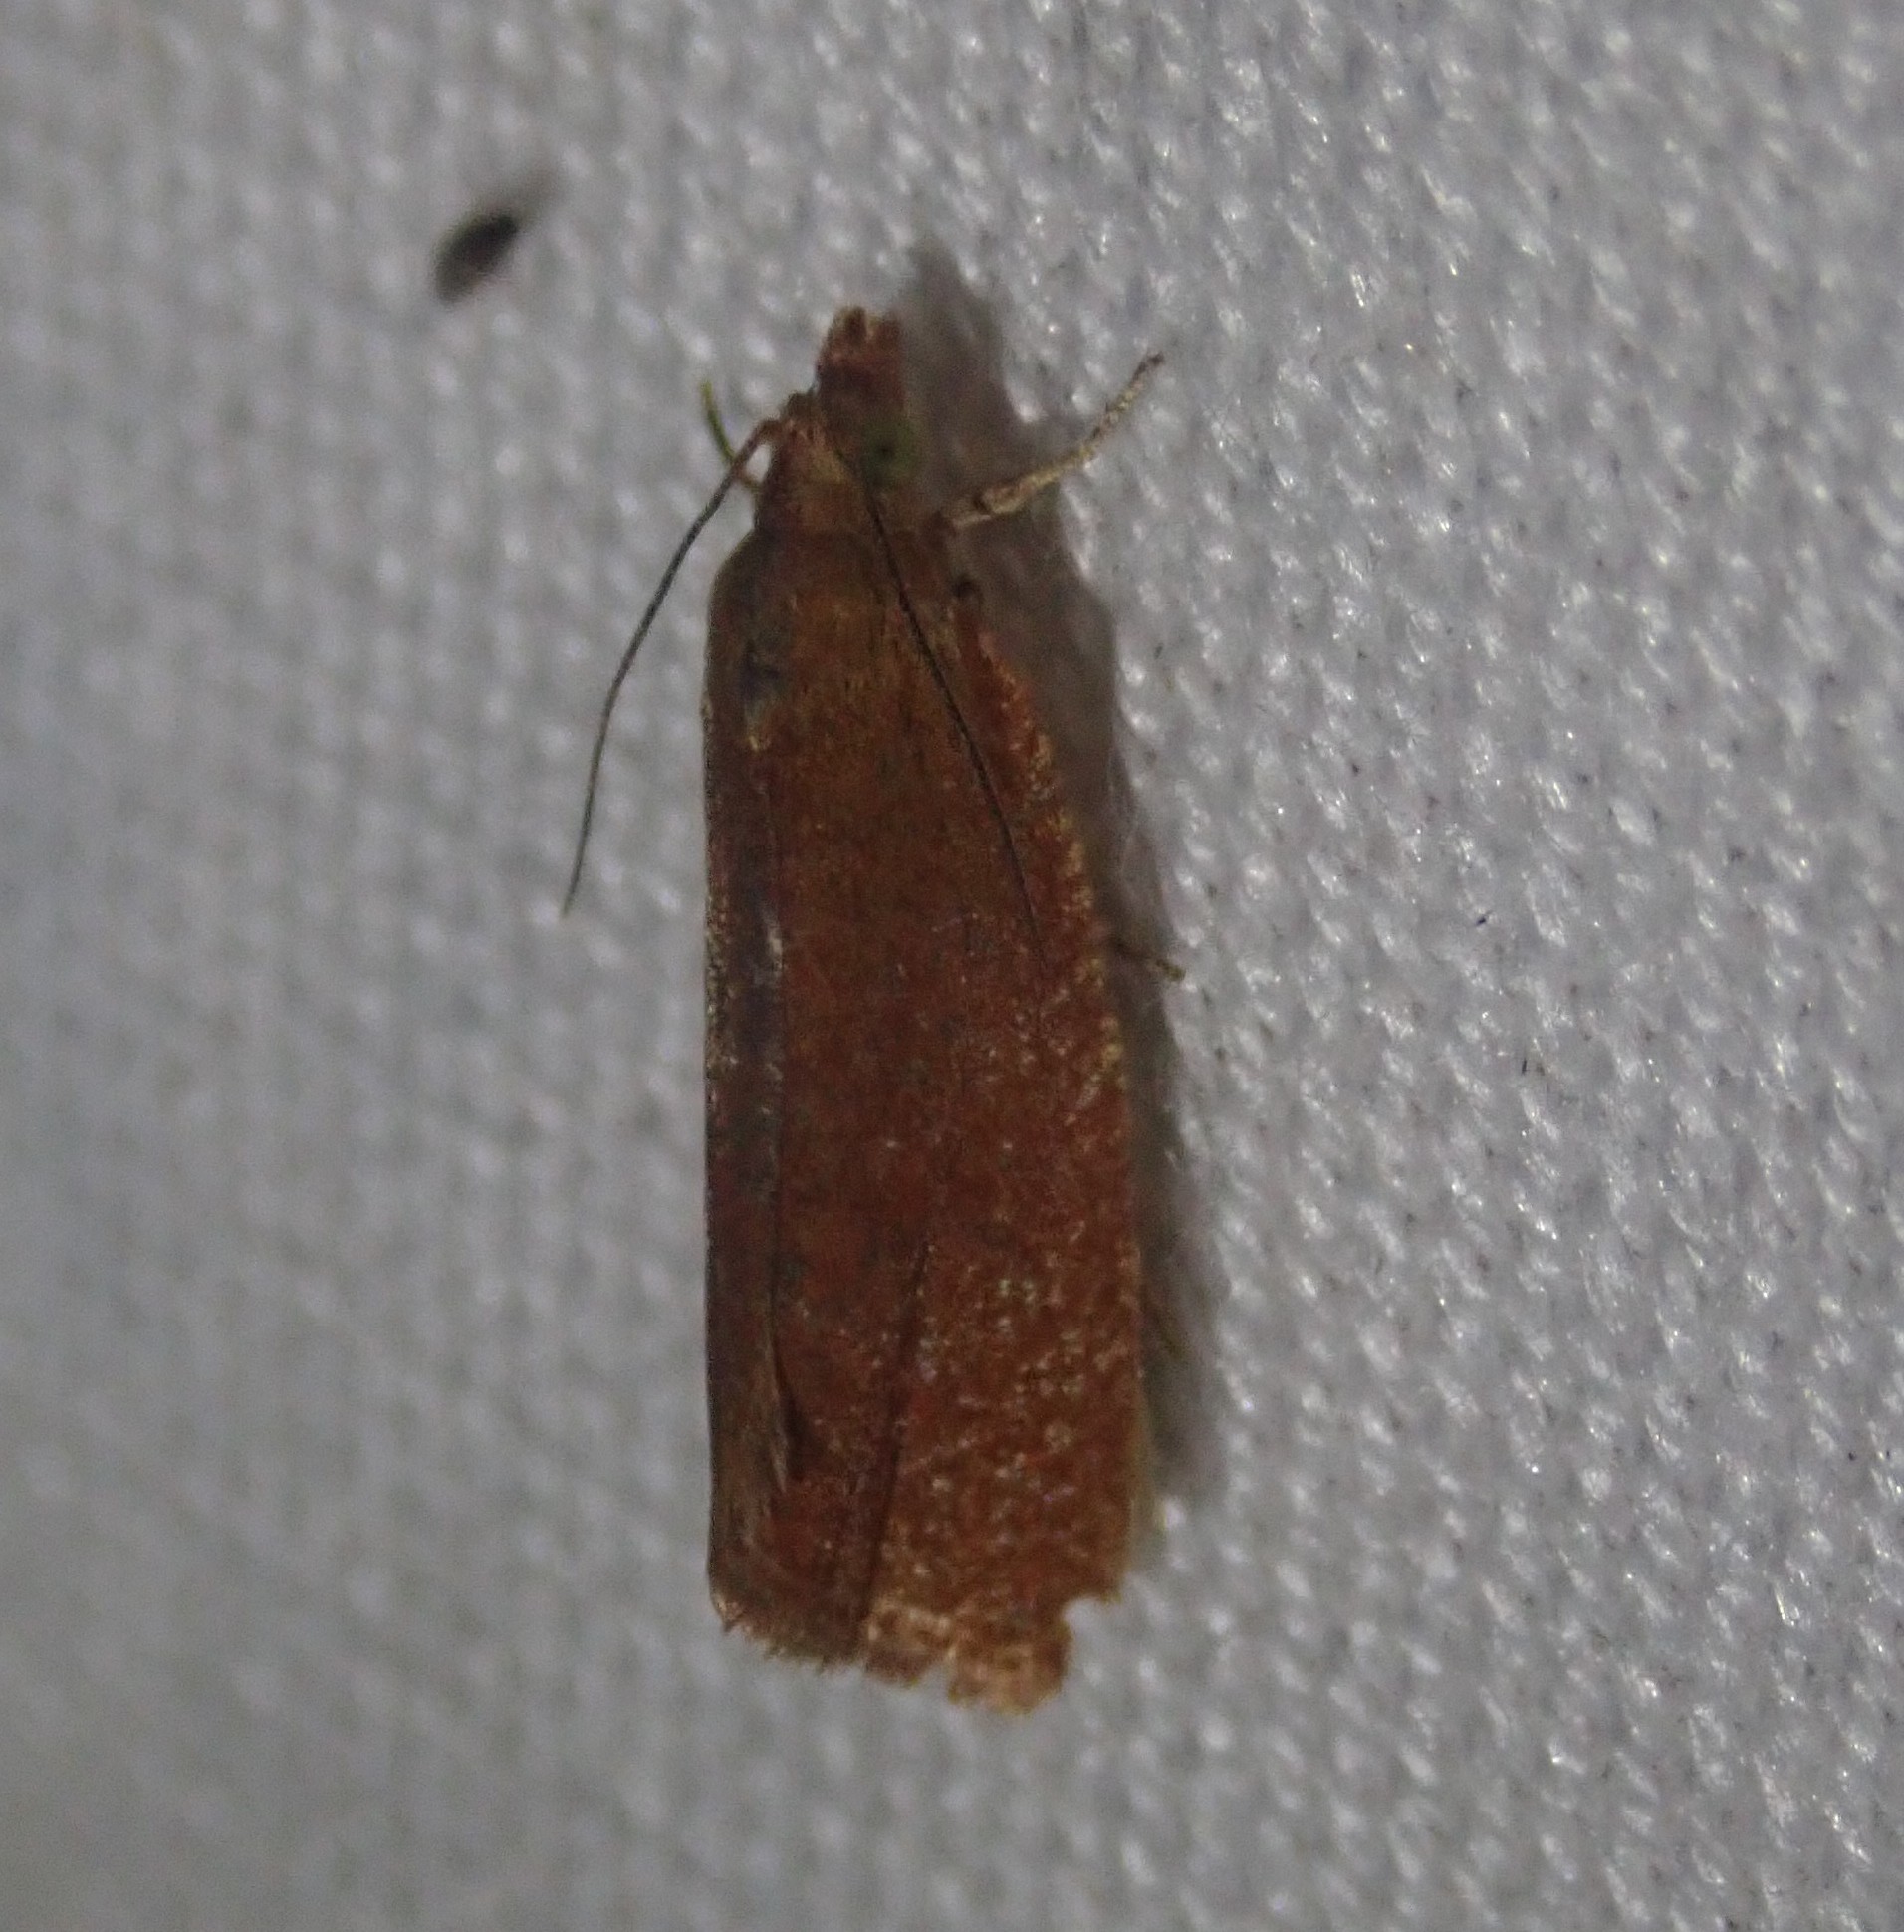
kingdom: Animalia
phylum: Arthropoda
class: Insecta
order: Lepidoptera
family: Tortricidae
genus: Celypha
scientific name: Celypha rufana
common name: Lakes marble
